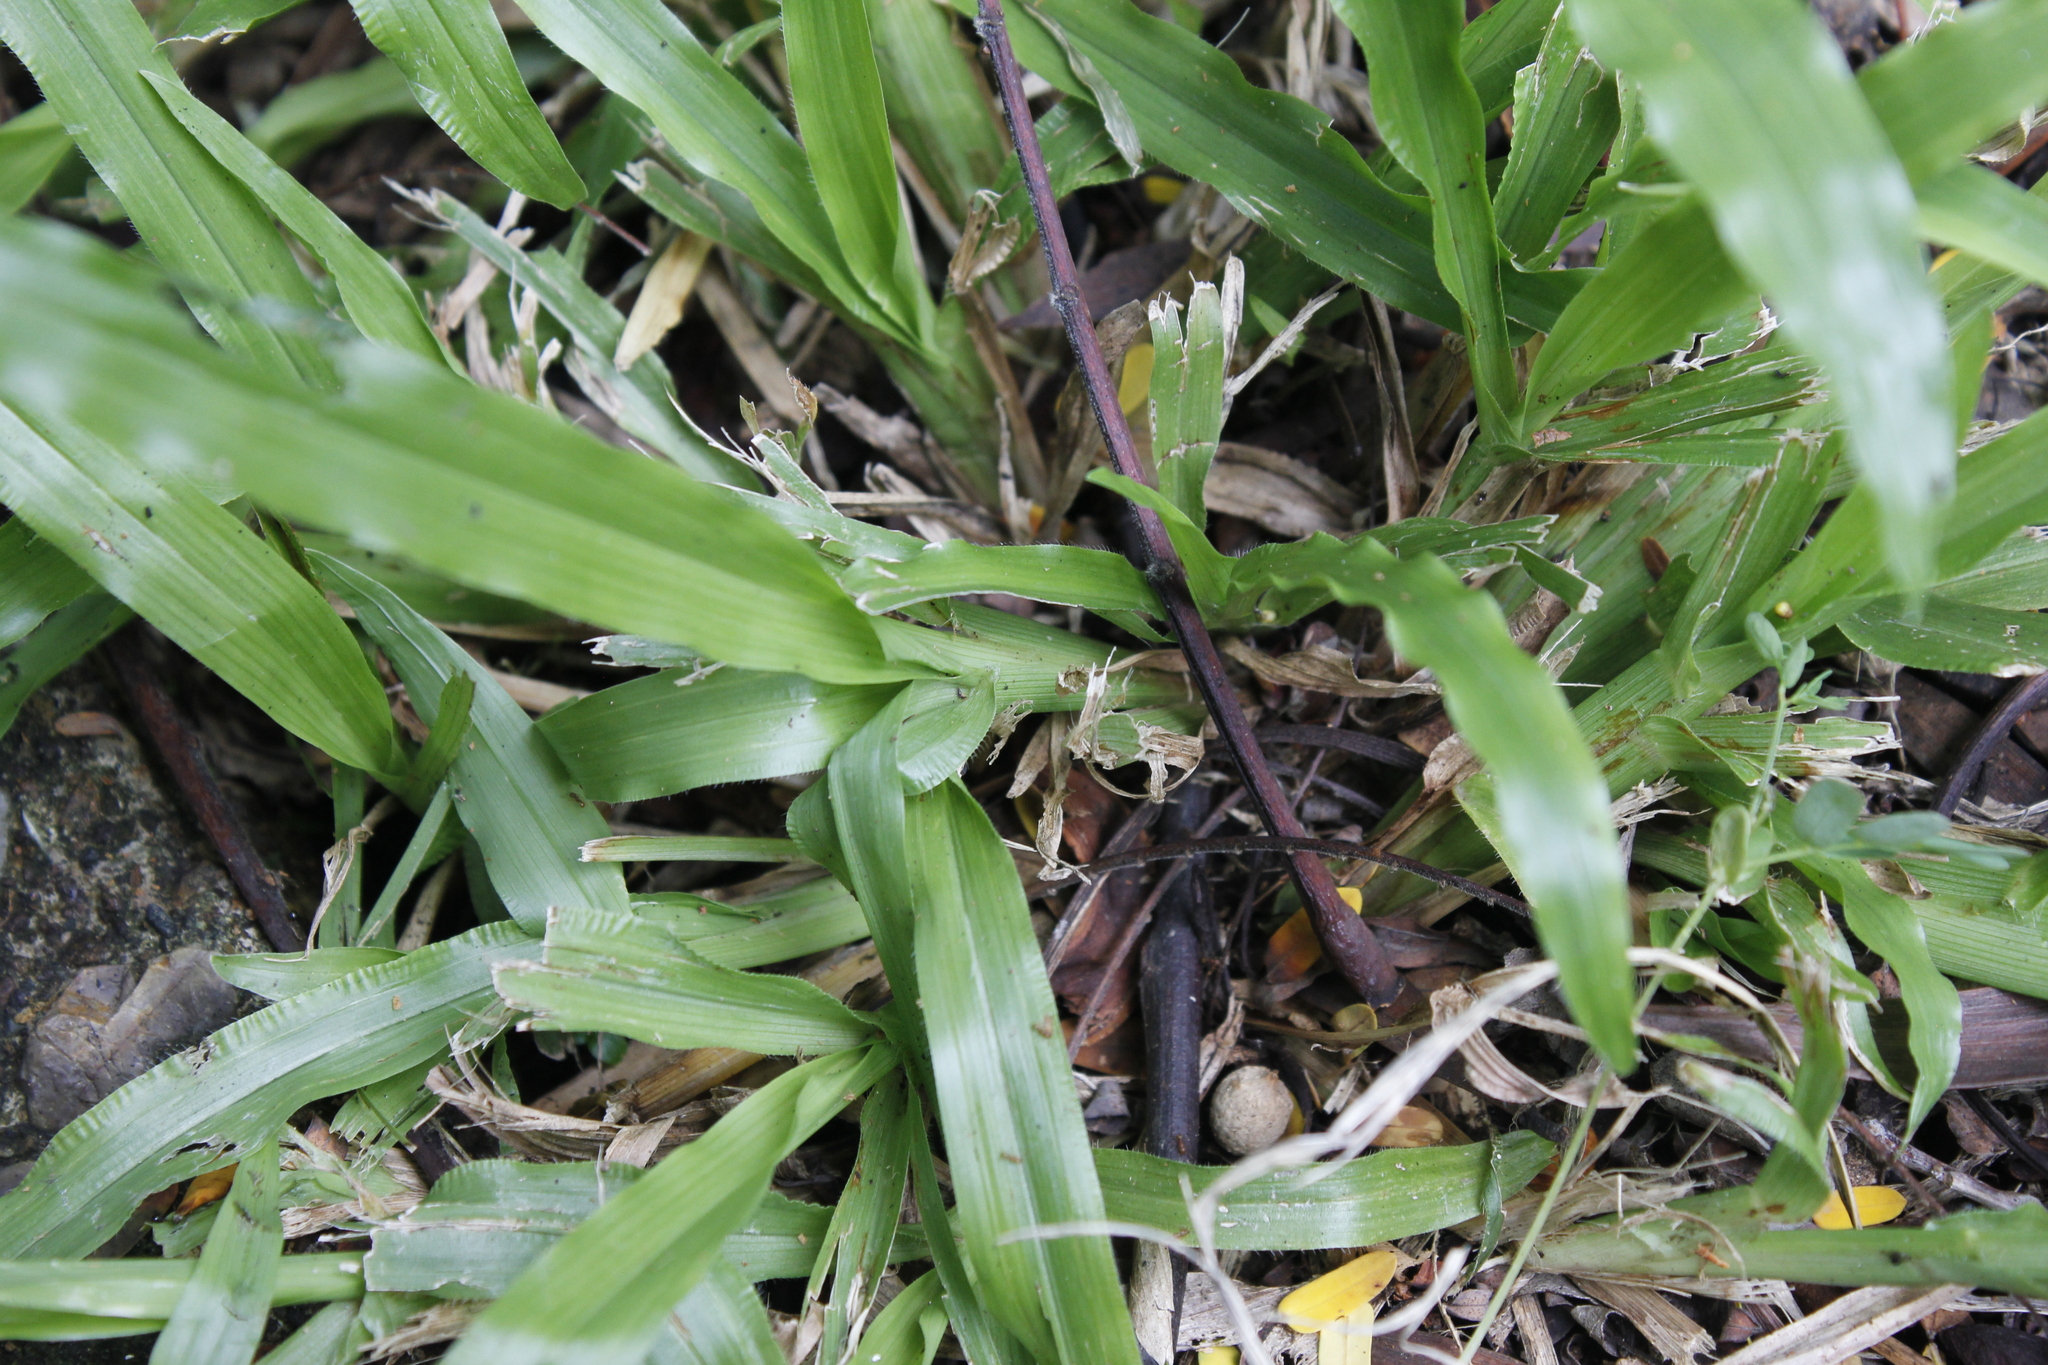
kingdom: Plantae
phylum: Tracheophyta
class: Liliopsida
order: Poales
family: Poaceae
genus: Axonopus
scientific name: Axonopus compressus
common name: American carpet grass
